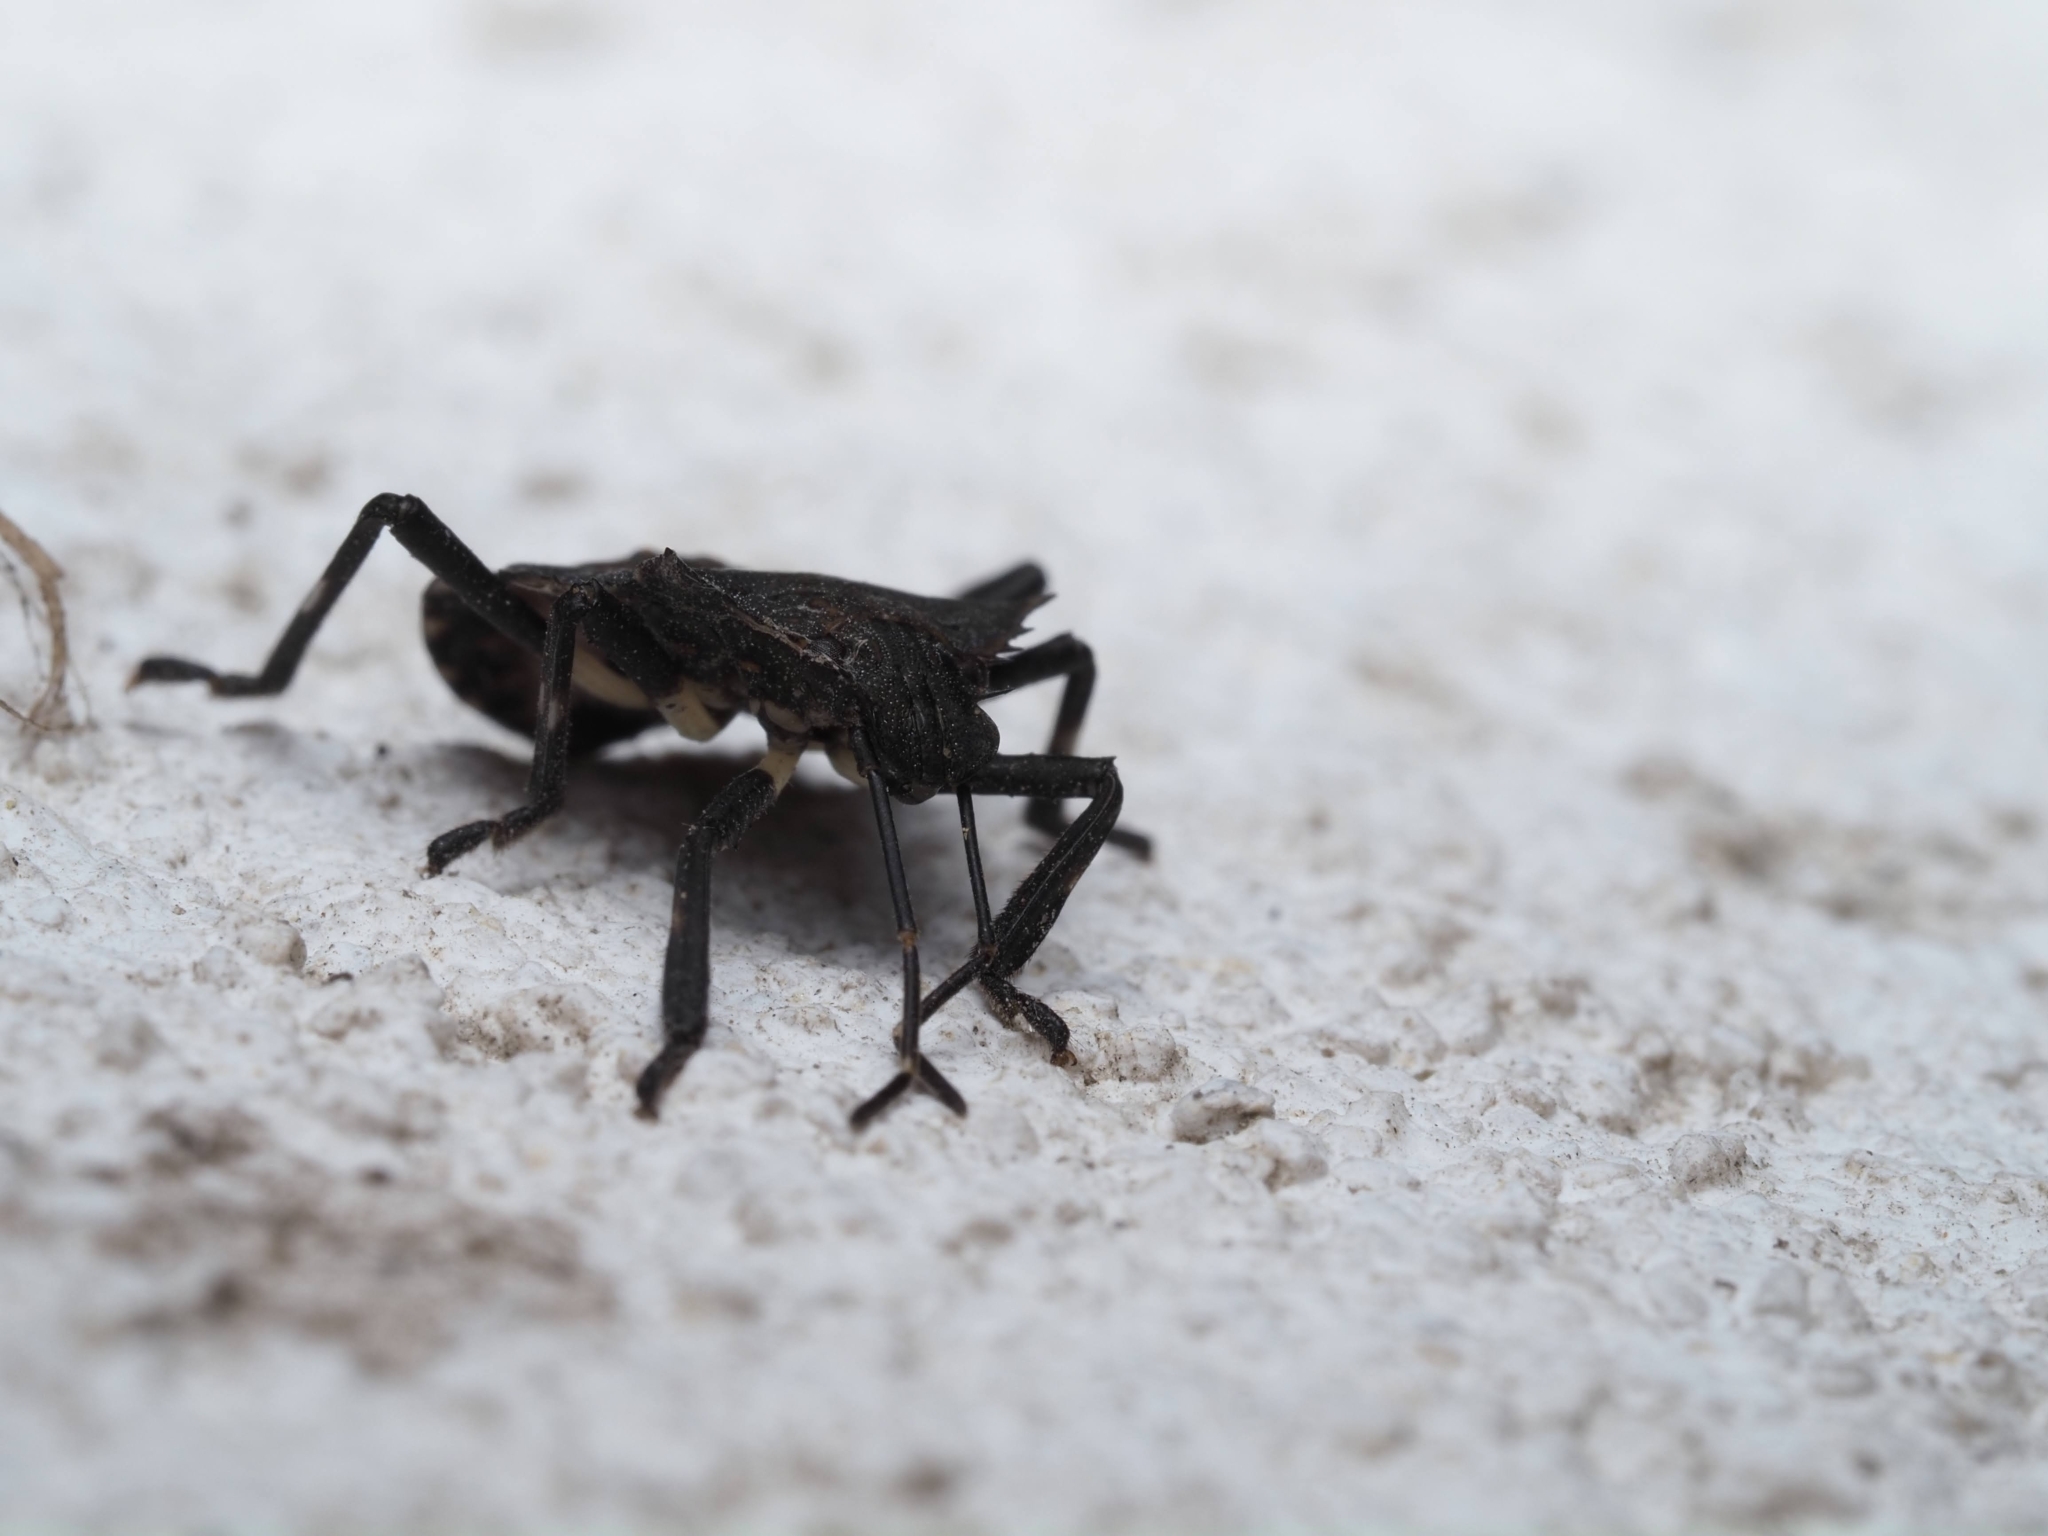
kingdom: Animalia
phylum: Arthropoda
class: Insecta
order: Hemiptera
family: Pentatomidae
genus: Halyomorpha
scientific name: Halyomorpha halys
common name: Brown marmorated stink bug
